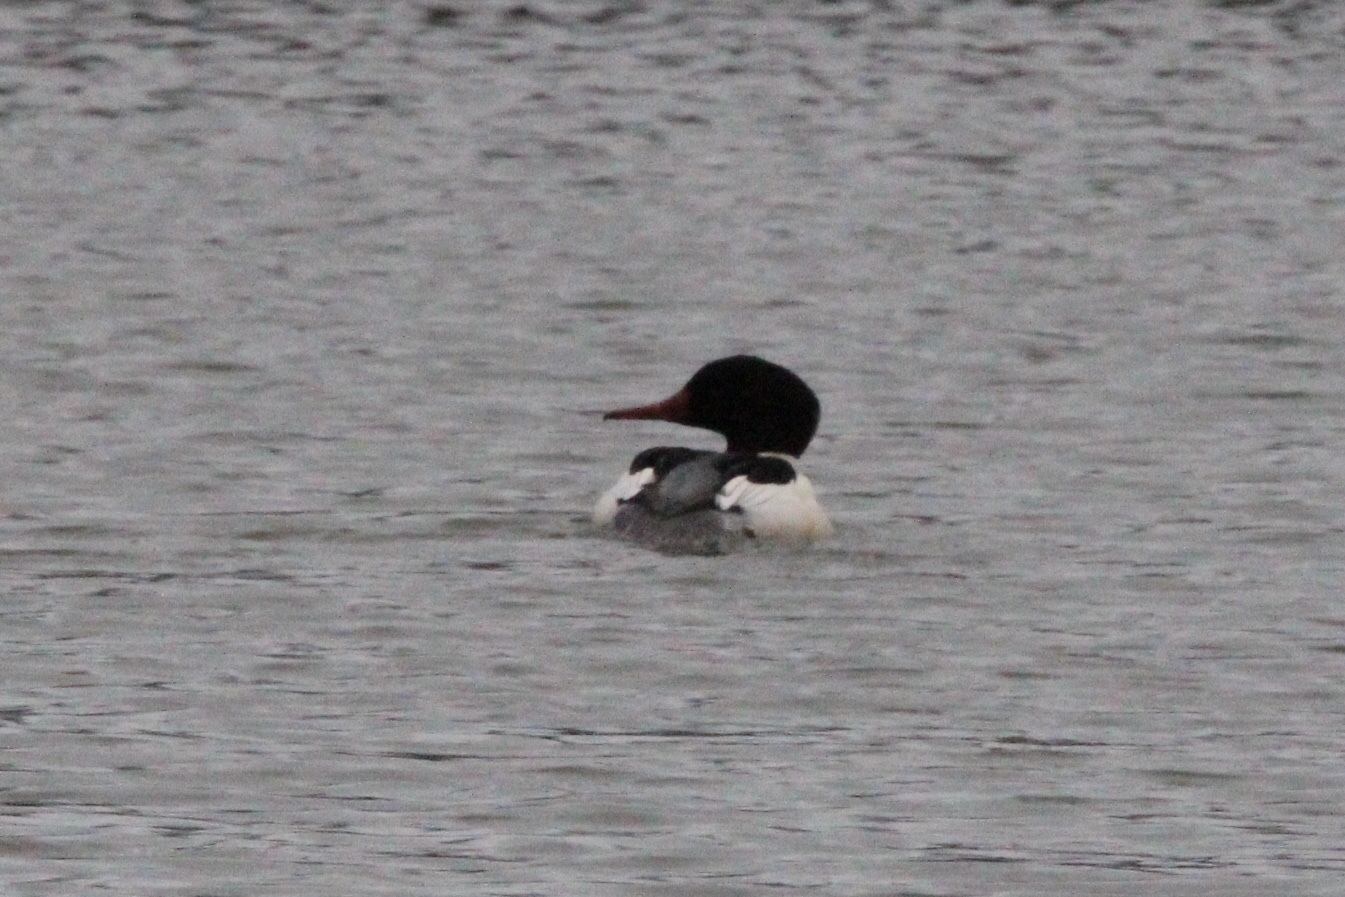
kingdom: Animalia
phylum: Chordata
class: Aves
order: Anseriformes
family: Anatidae
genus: Mergus
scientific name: Mergus merganser
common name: Common merganser
